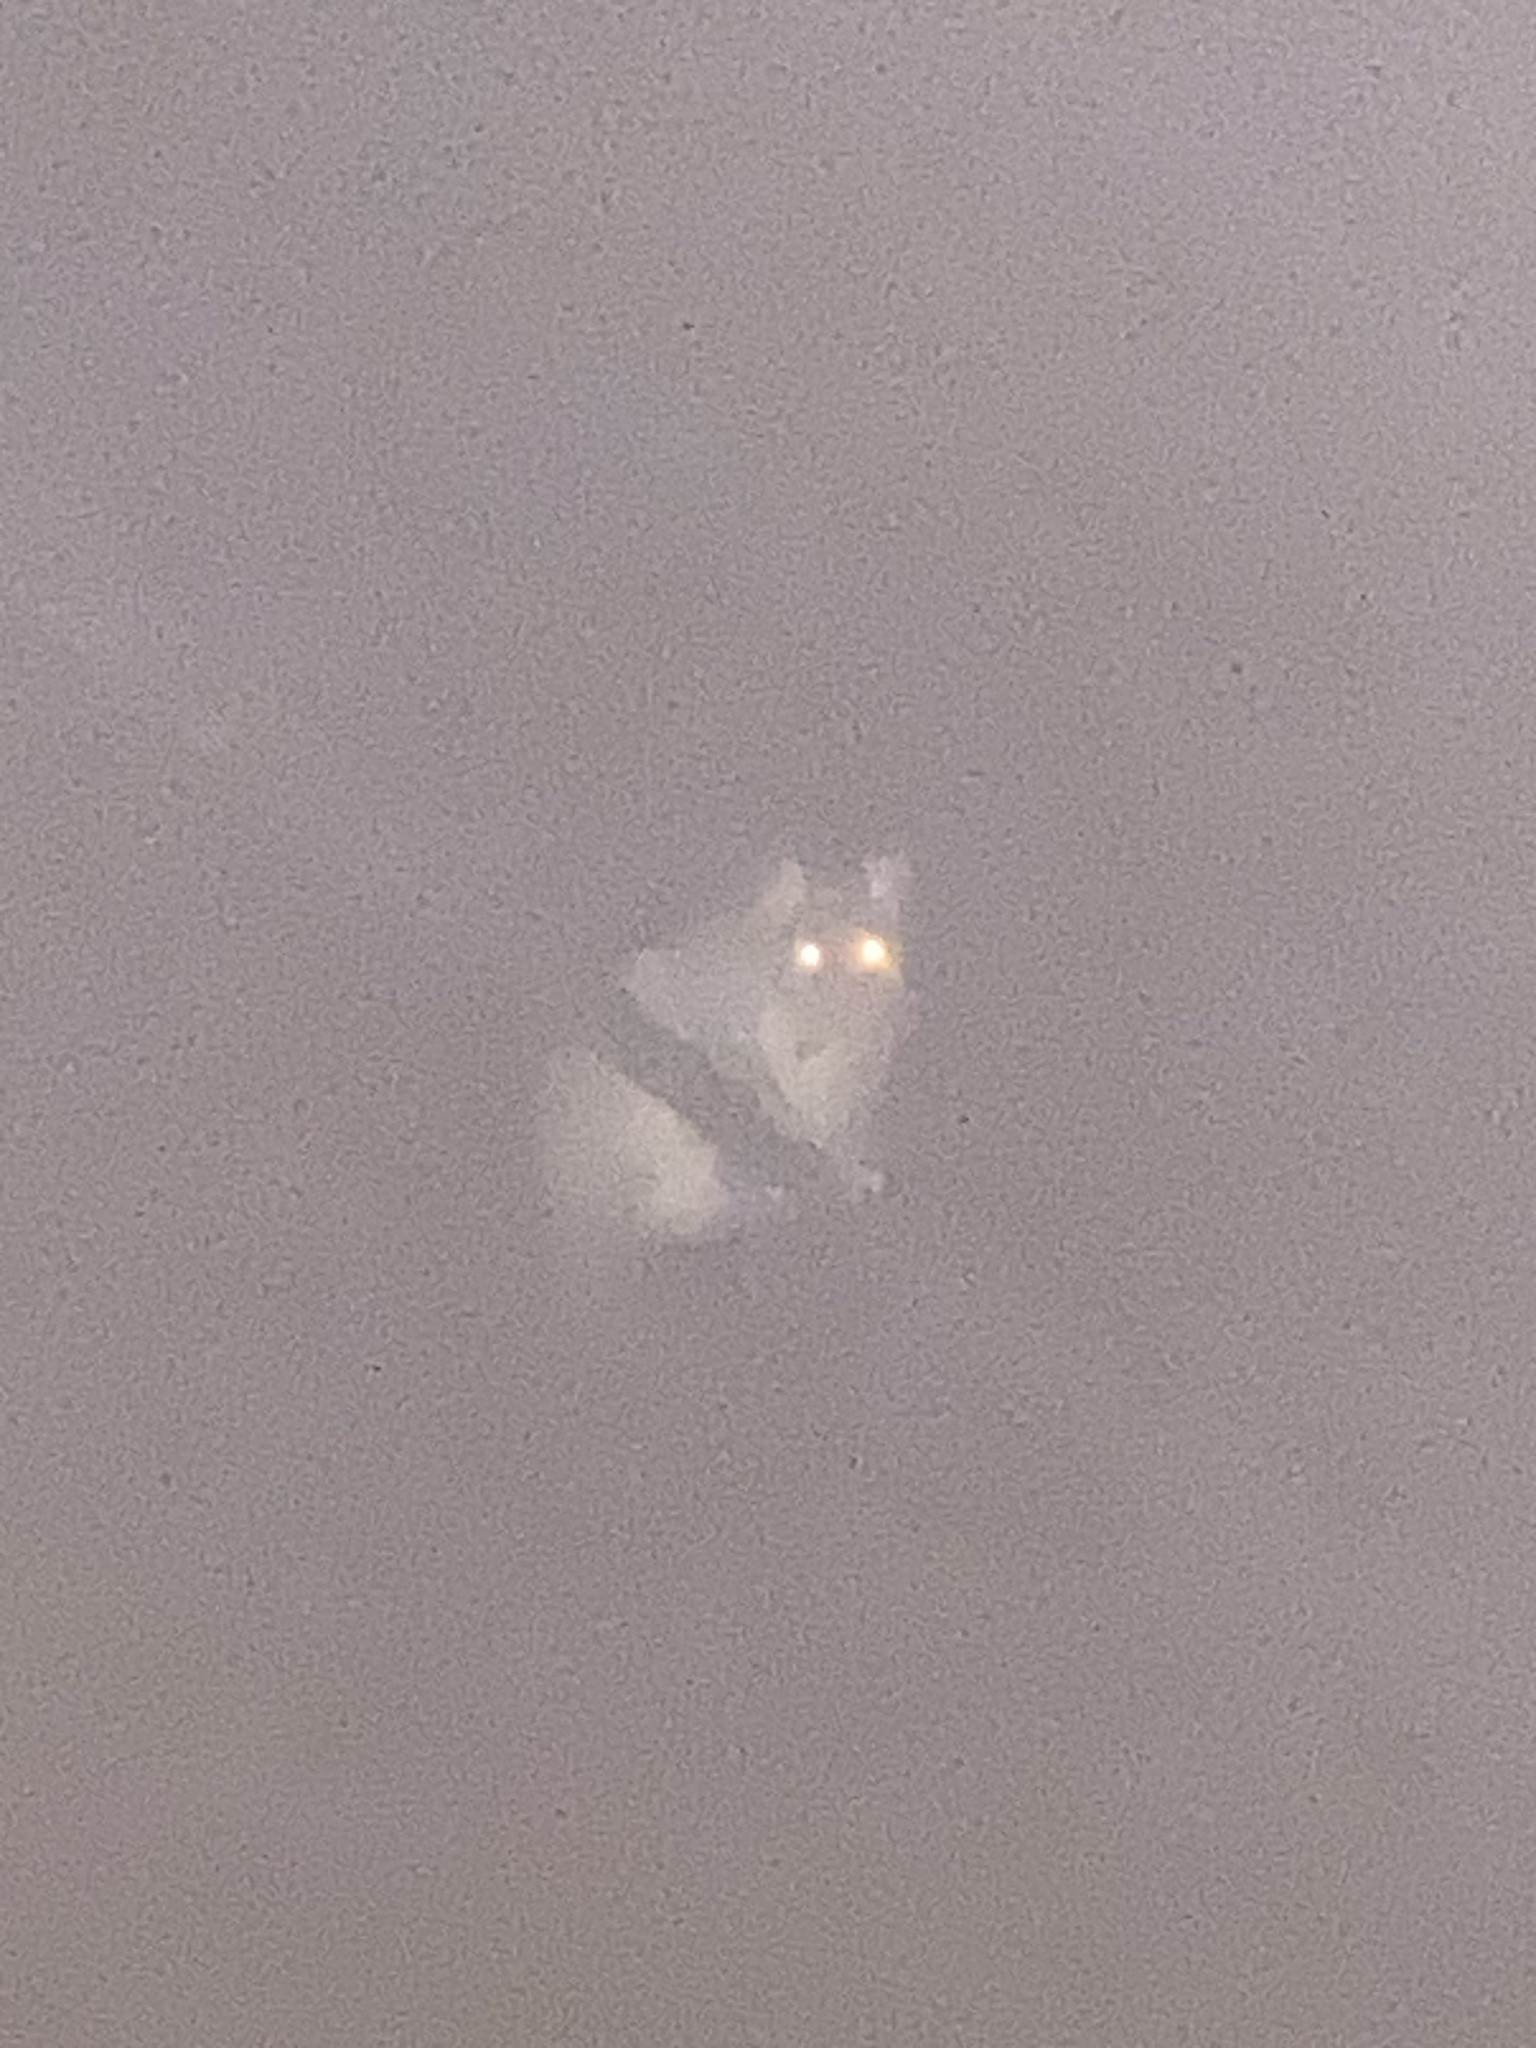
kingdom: Animalia
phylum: Chordata
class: Mammalia
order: Diprotodontia
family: Phalangeridae
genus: Trichosurus
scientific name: Trichosurus vulpecula
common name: Common brushtail
